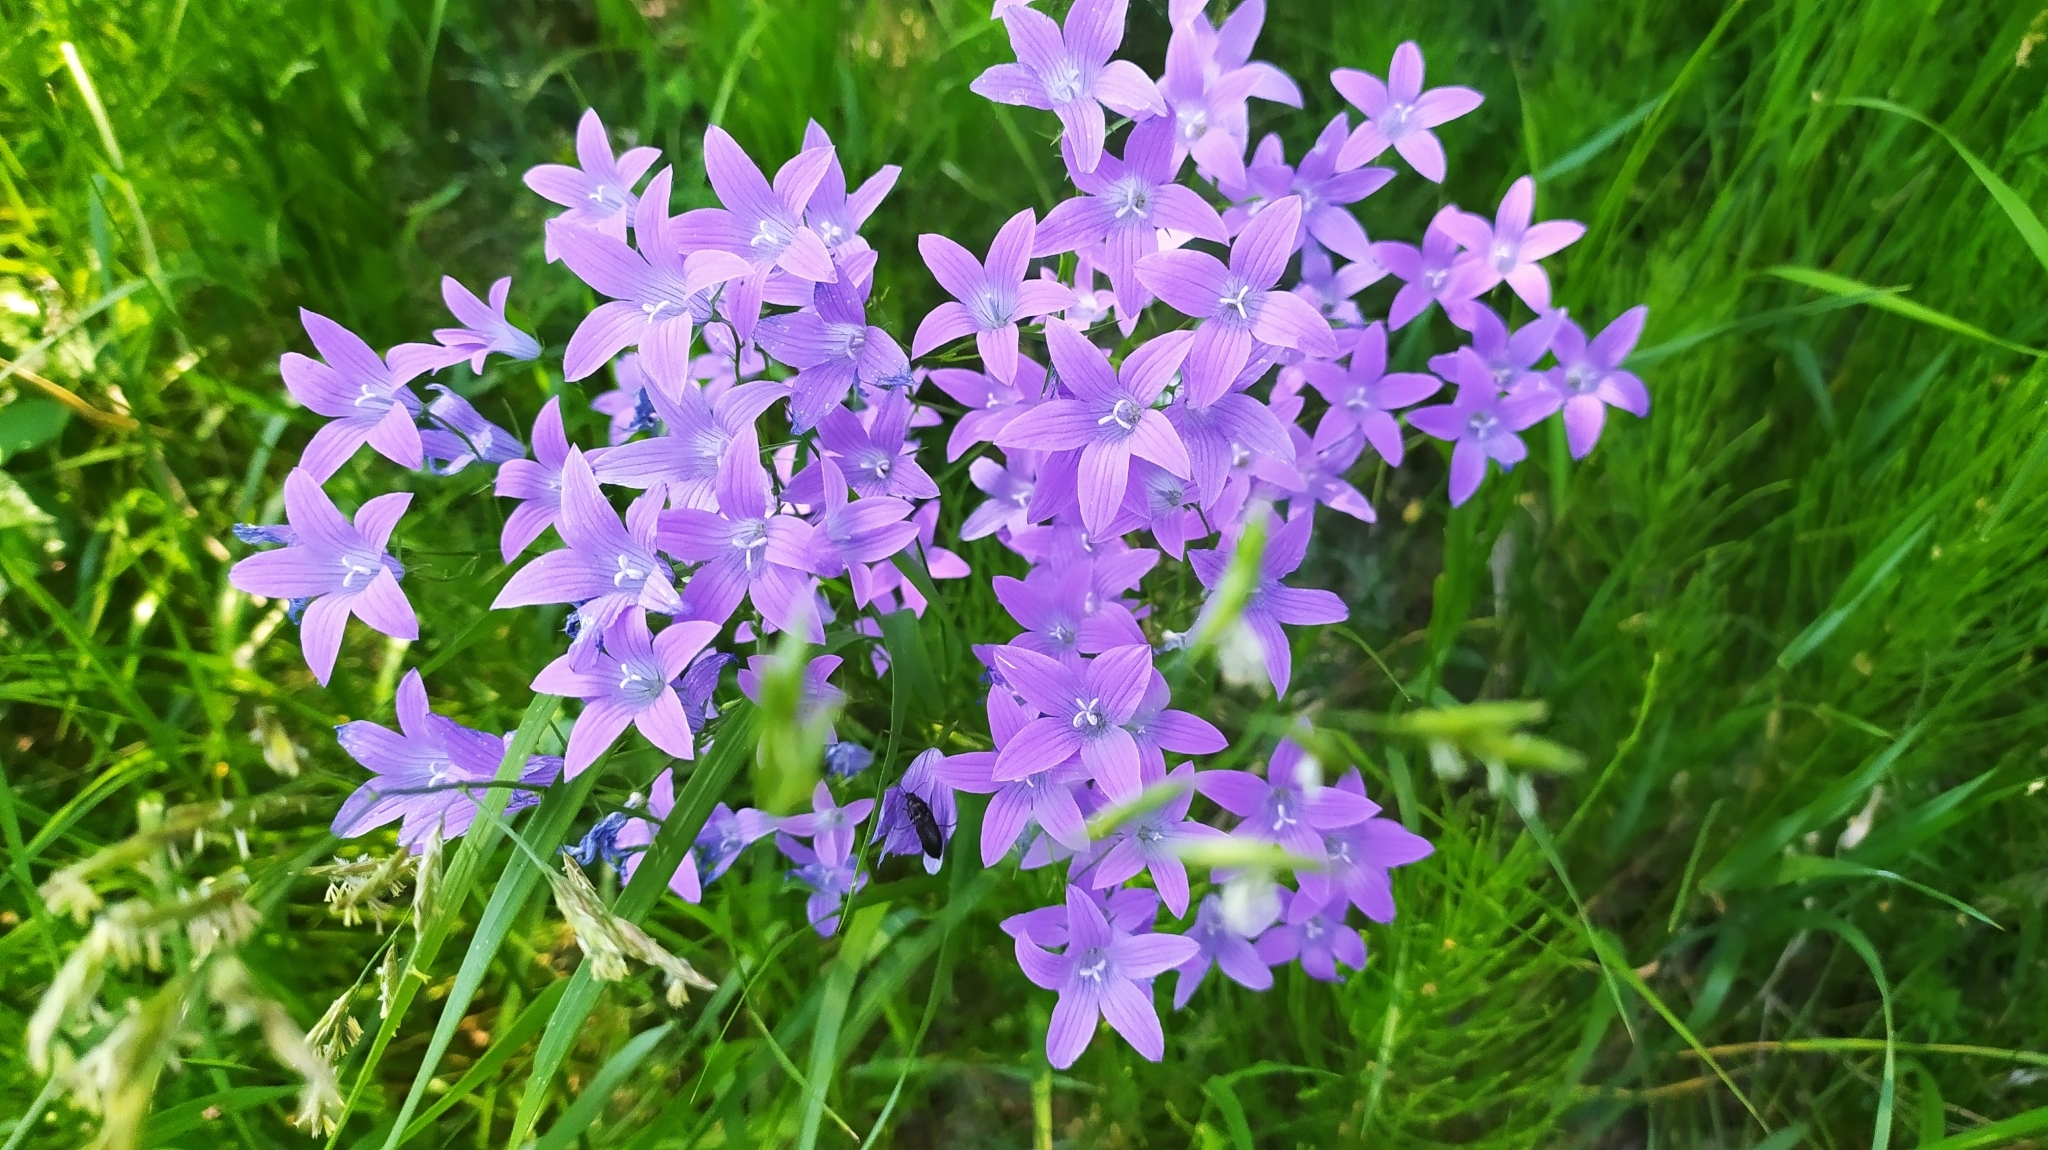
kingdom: Plantae
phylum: Tracheophyta
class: Magnoliopsida
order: Asterales
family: Campanulaceae
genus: Campanula
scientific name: Campanula patula
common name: Spreading bellflower
